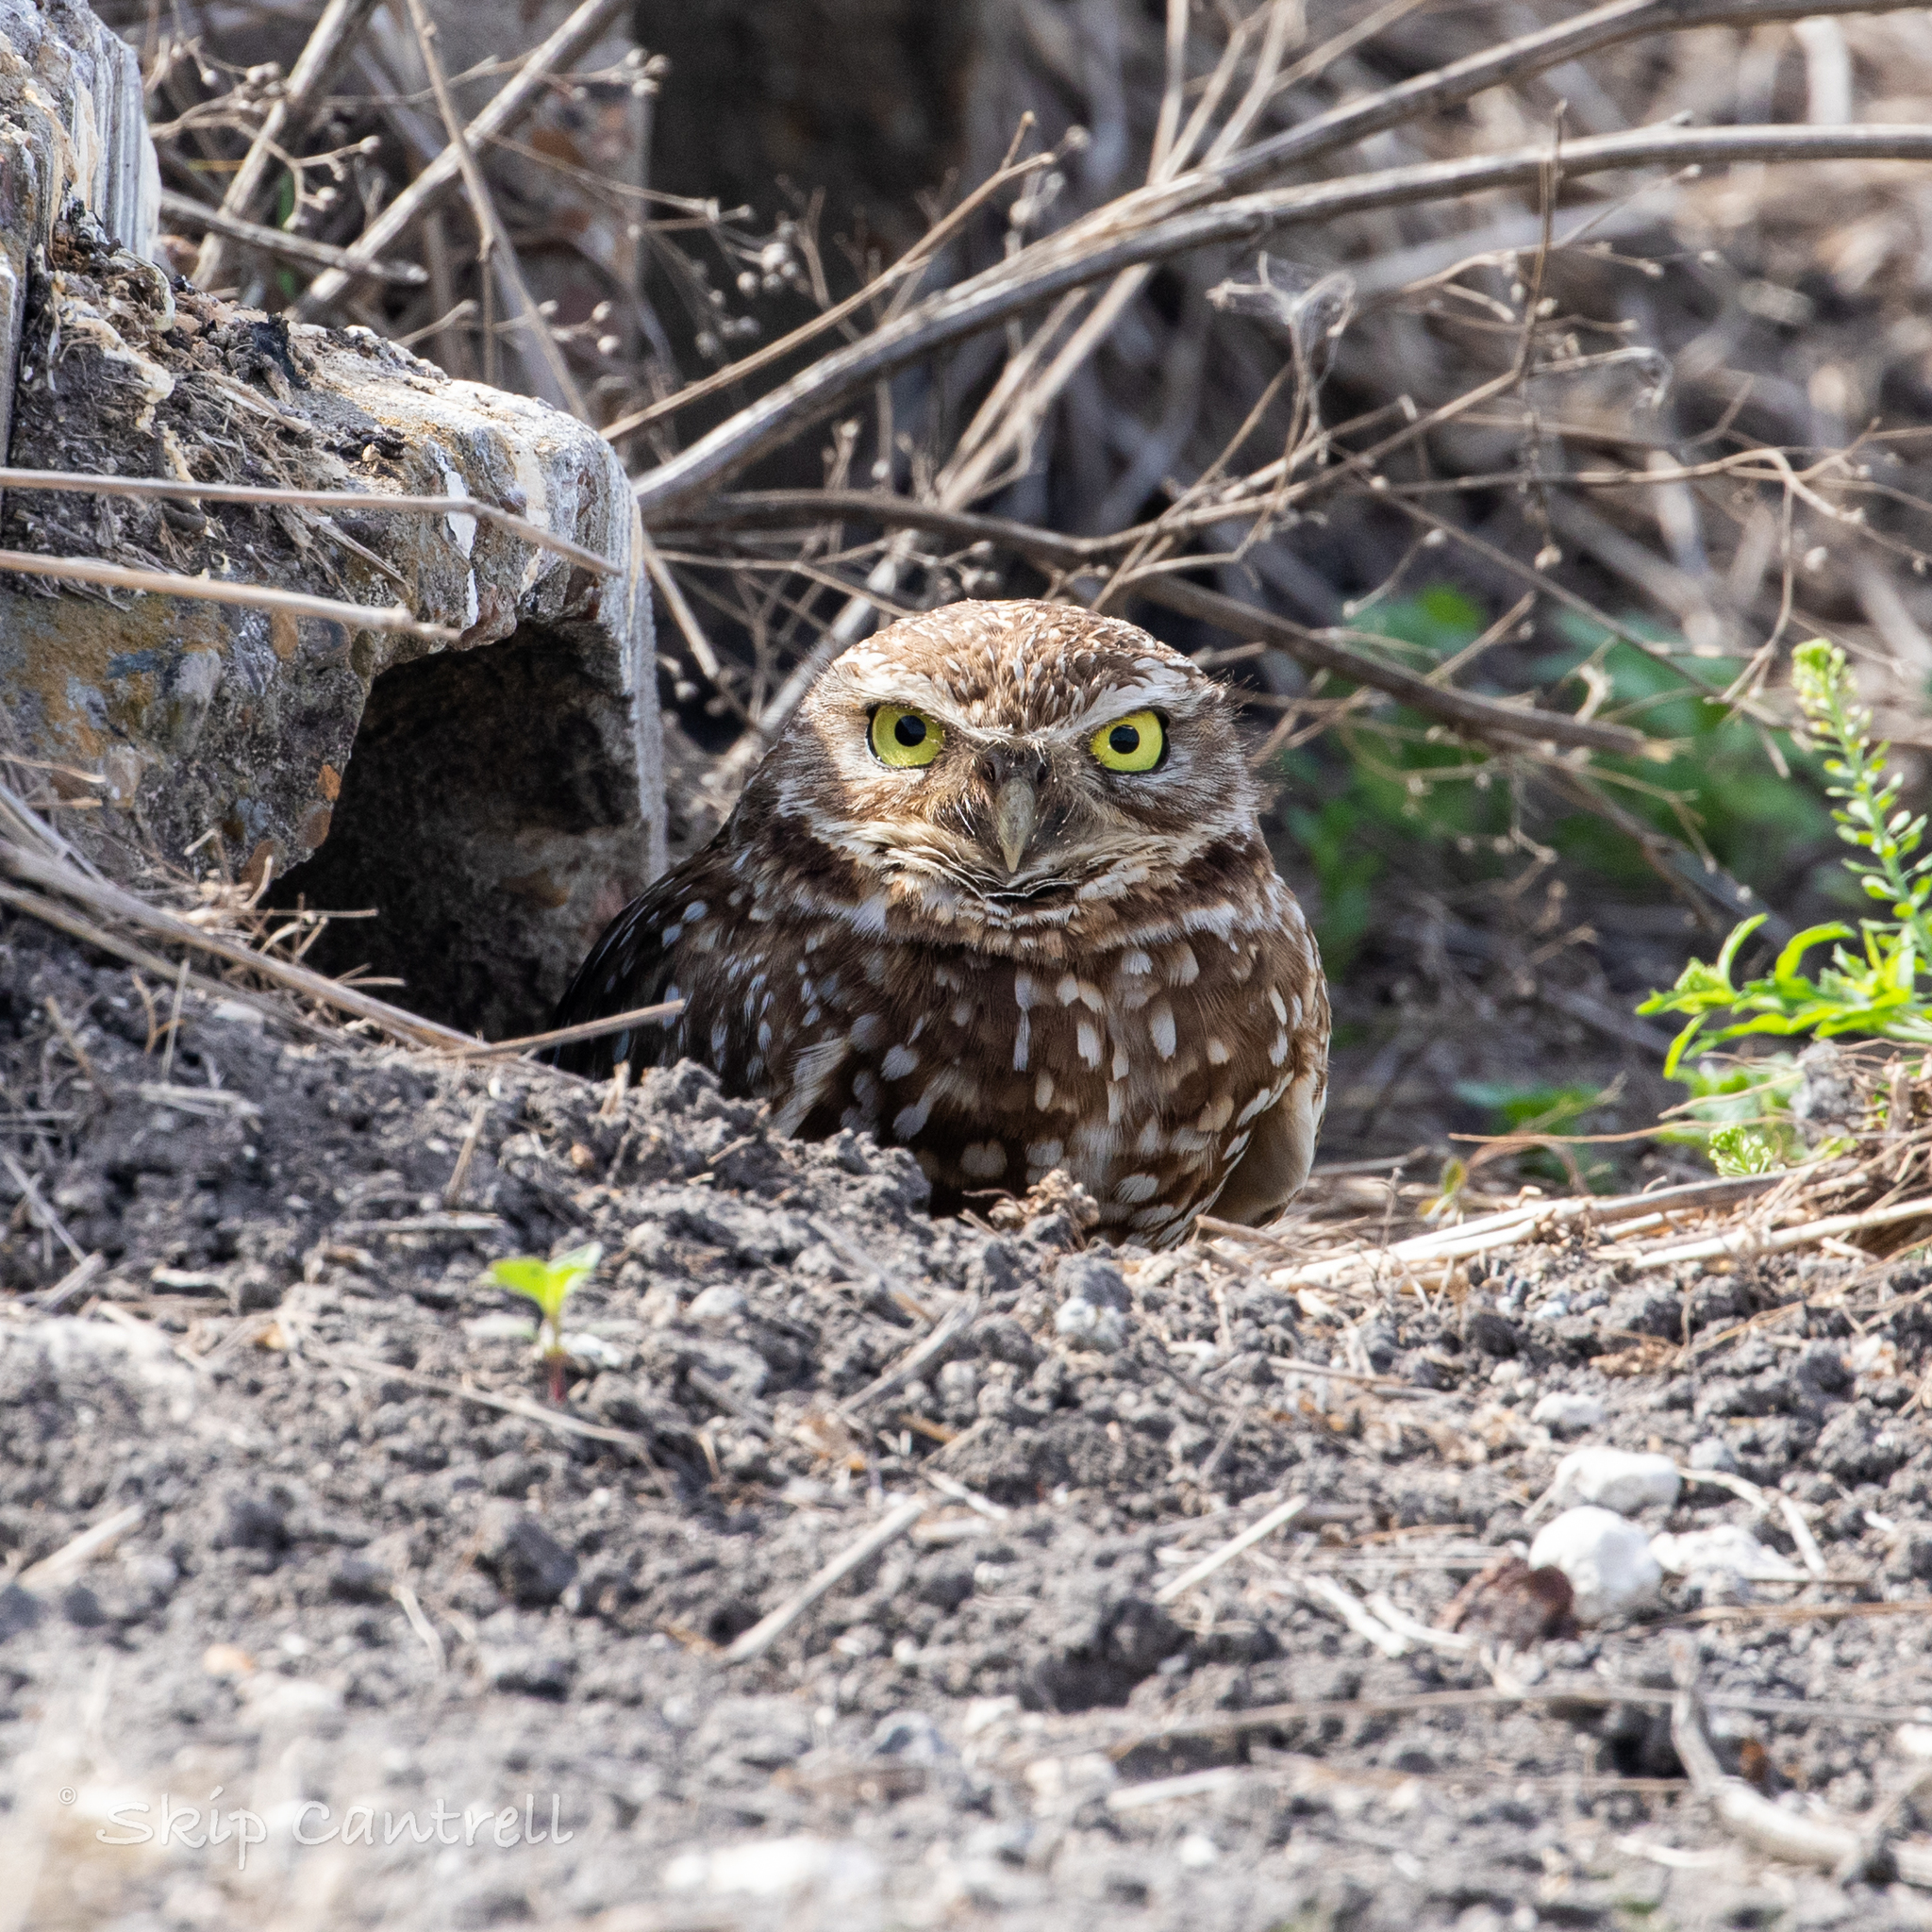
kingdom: Animalia
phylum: Chordata
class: Aves
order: Strigiformes
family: Strigidae
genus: Athene
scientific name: Athene cunicularia
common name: Burrowing owl
